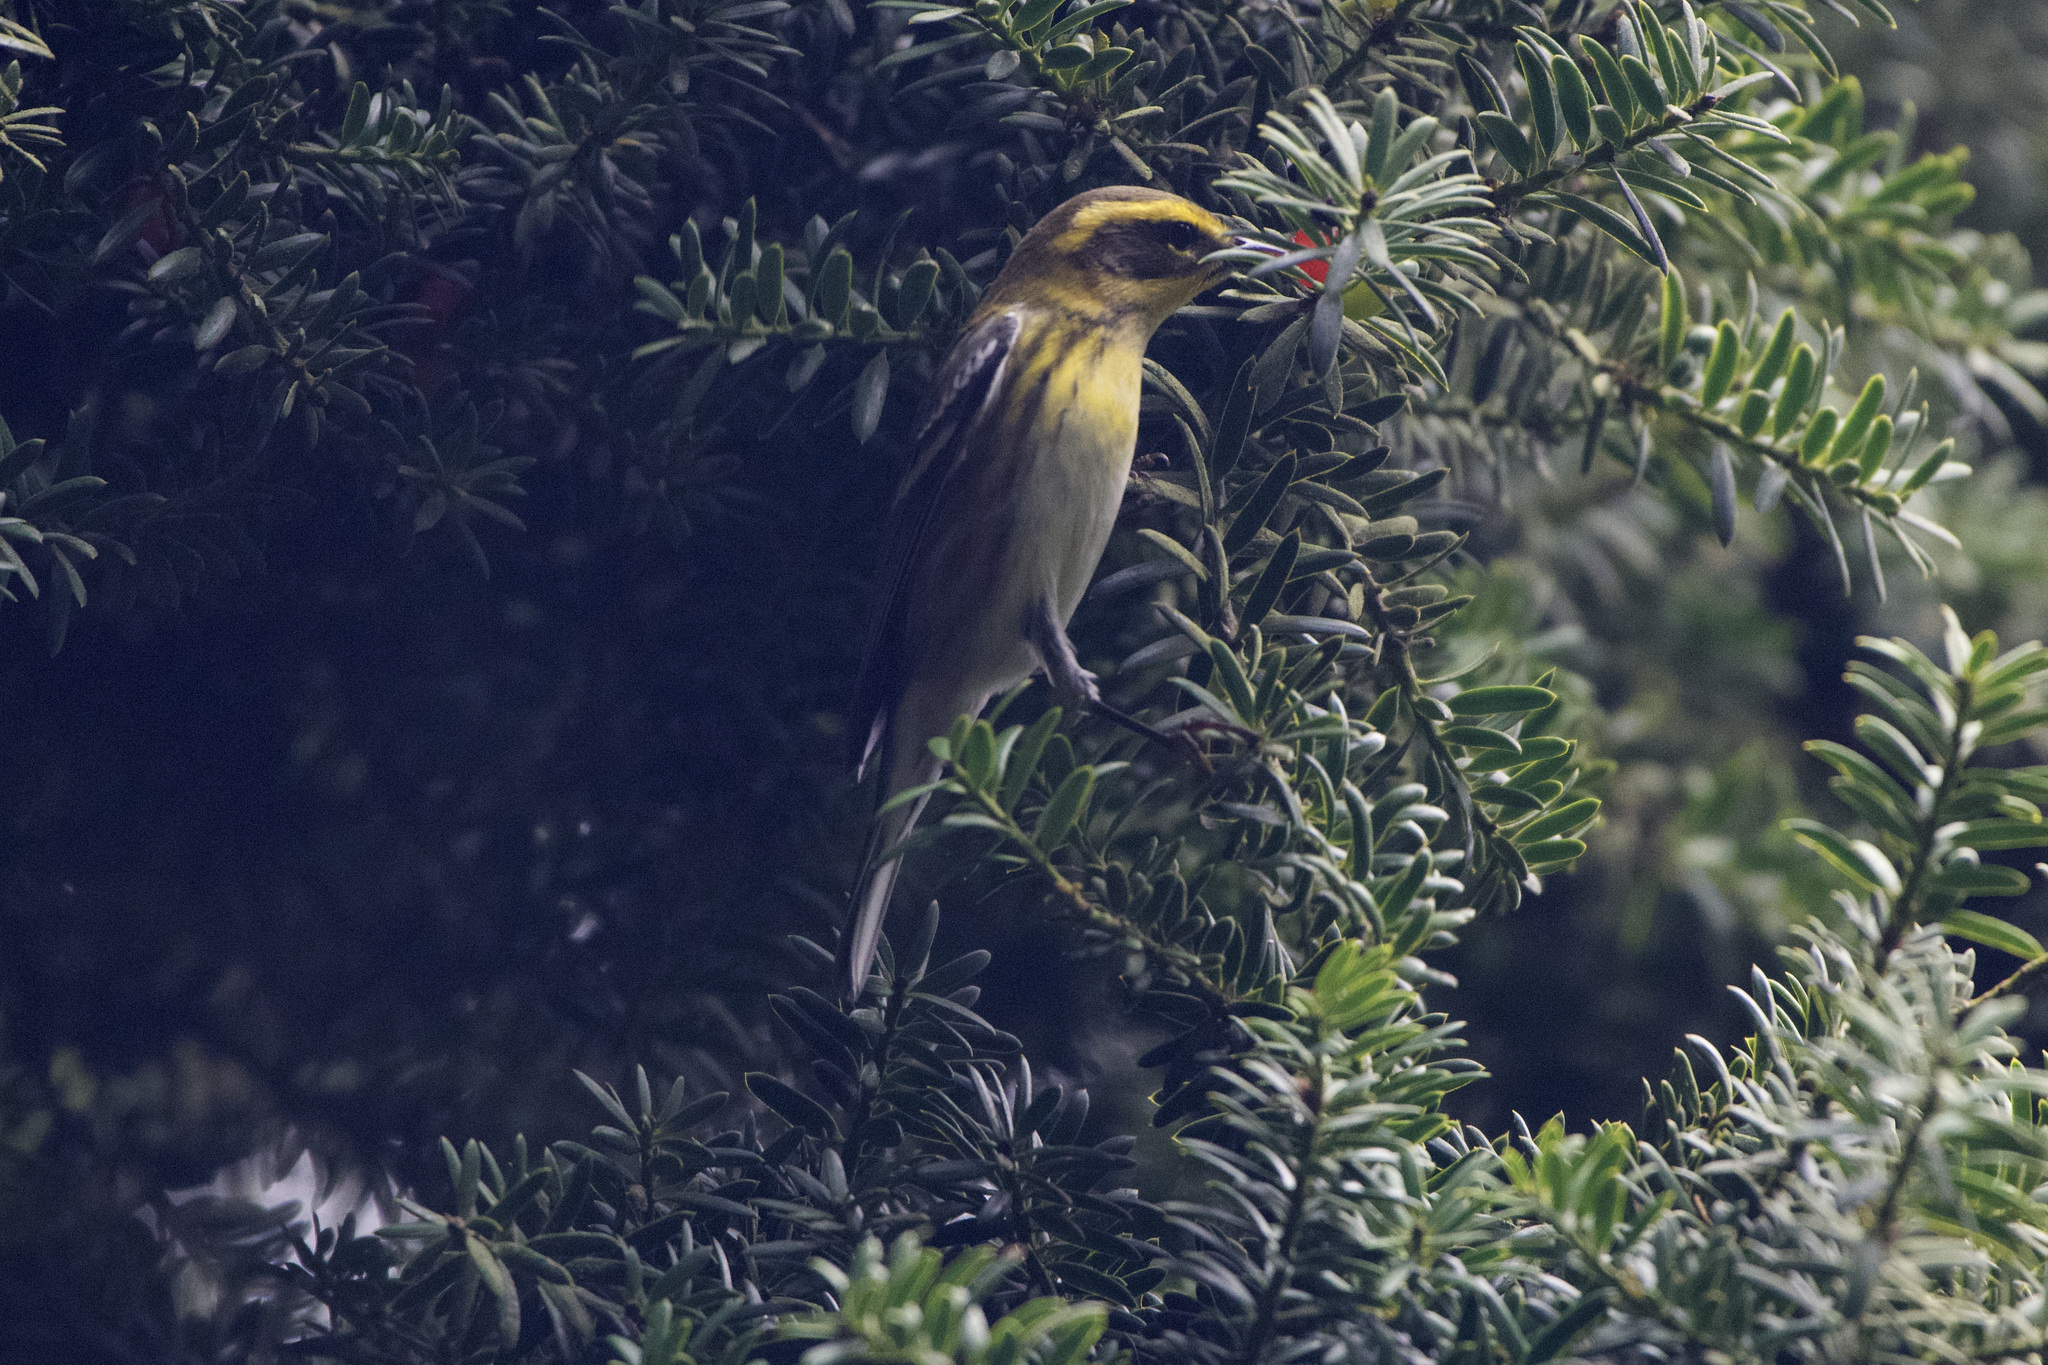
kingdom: Animalia
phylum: Chordata
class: Aves
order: Passeriformes
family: Parulidae
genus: Setophaga
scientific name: Setophaga townsendi
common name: Townsend's warbler
